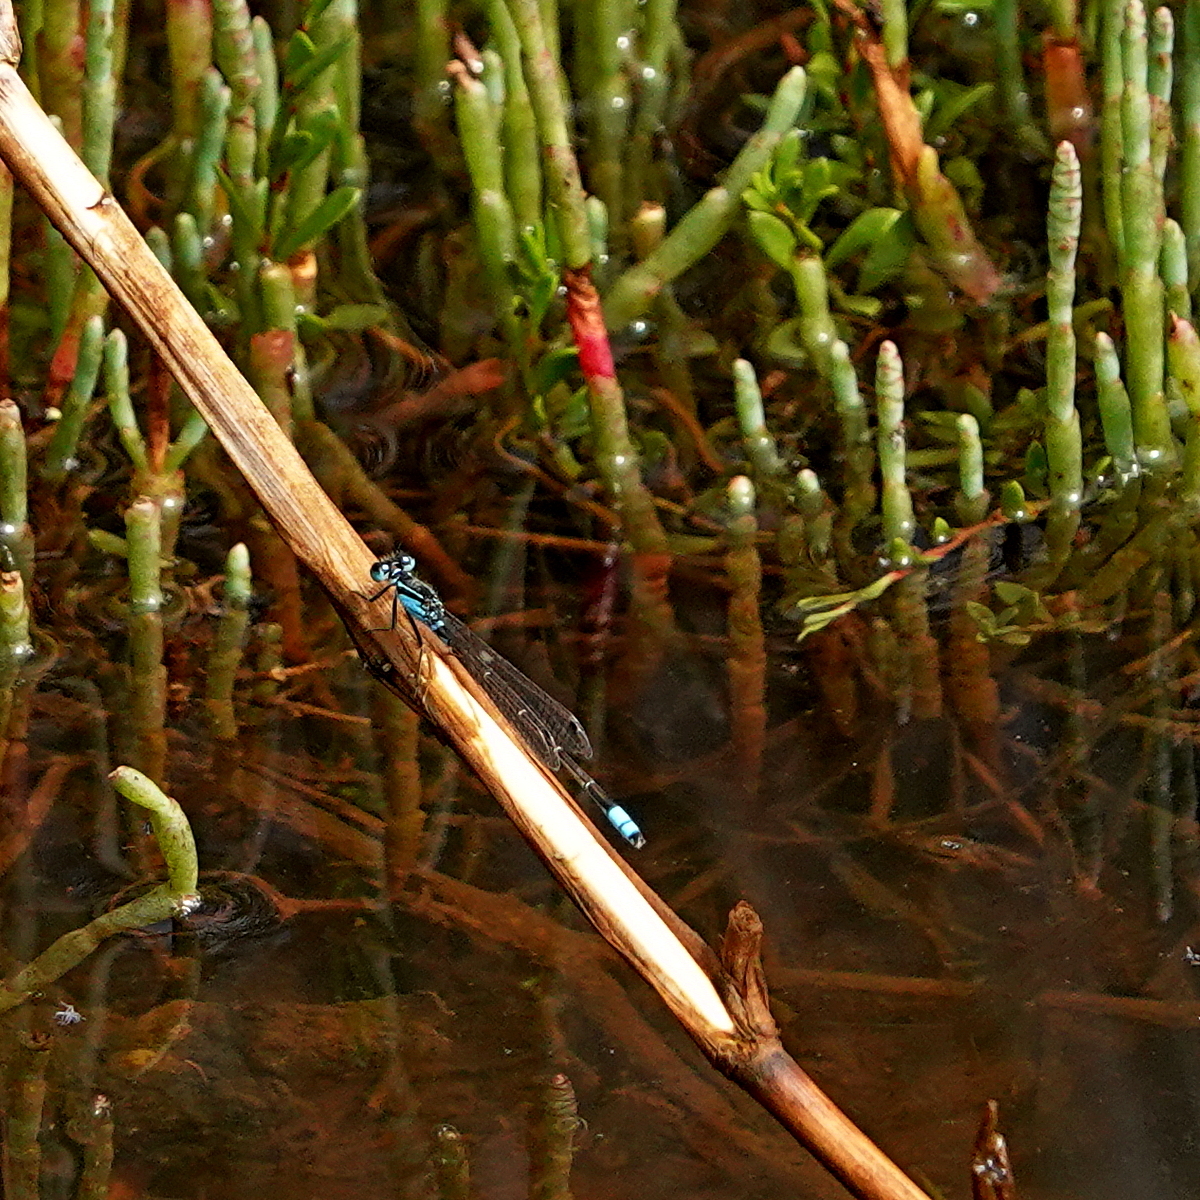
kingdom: Animalia
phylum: Arthropoda
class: Insecta
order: Odonata
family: Coenagrionidae
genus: Ischnura
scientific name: Ischnura heterosticta
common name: Common bluetail
